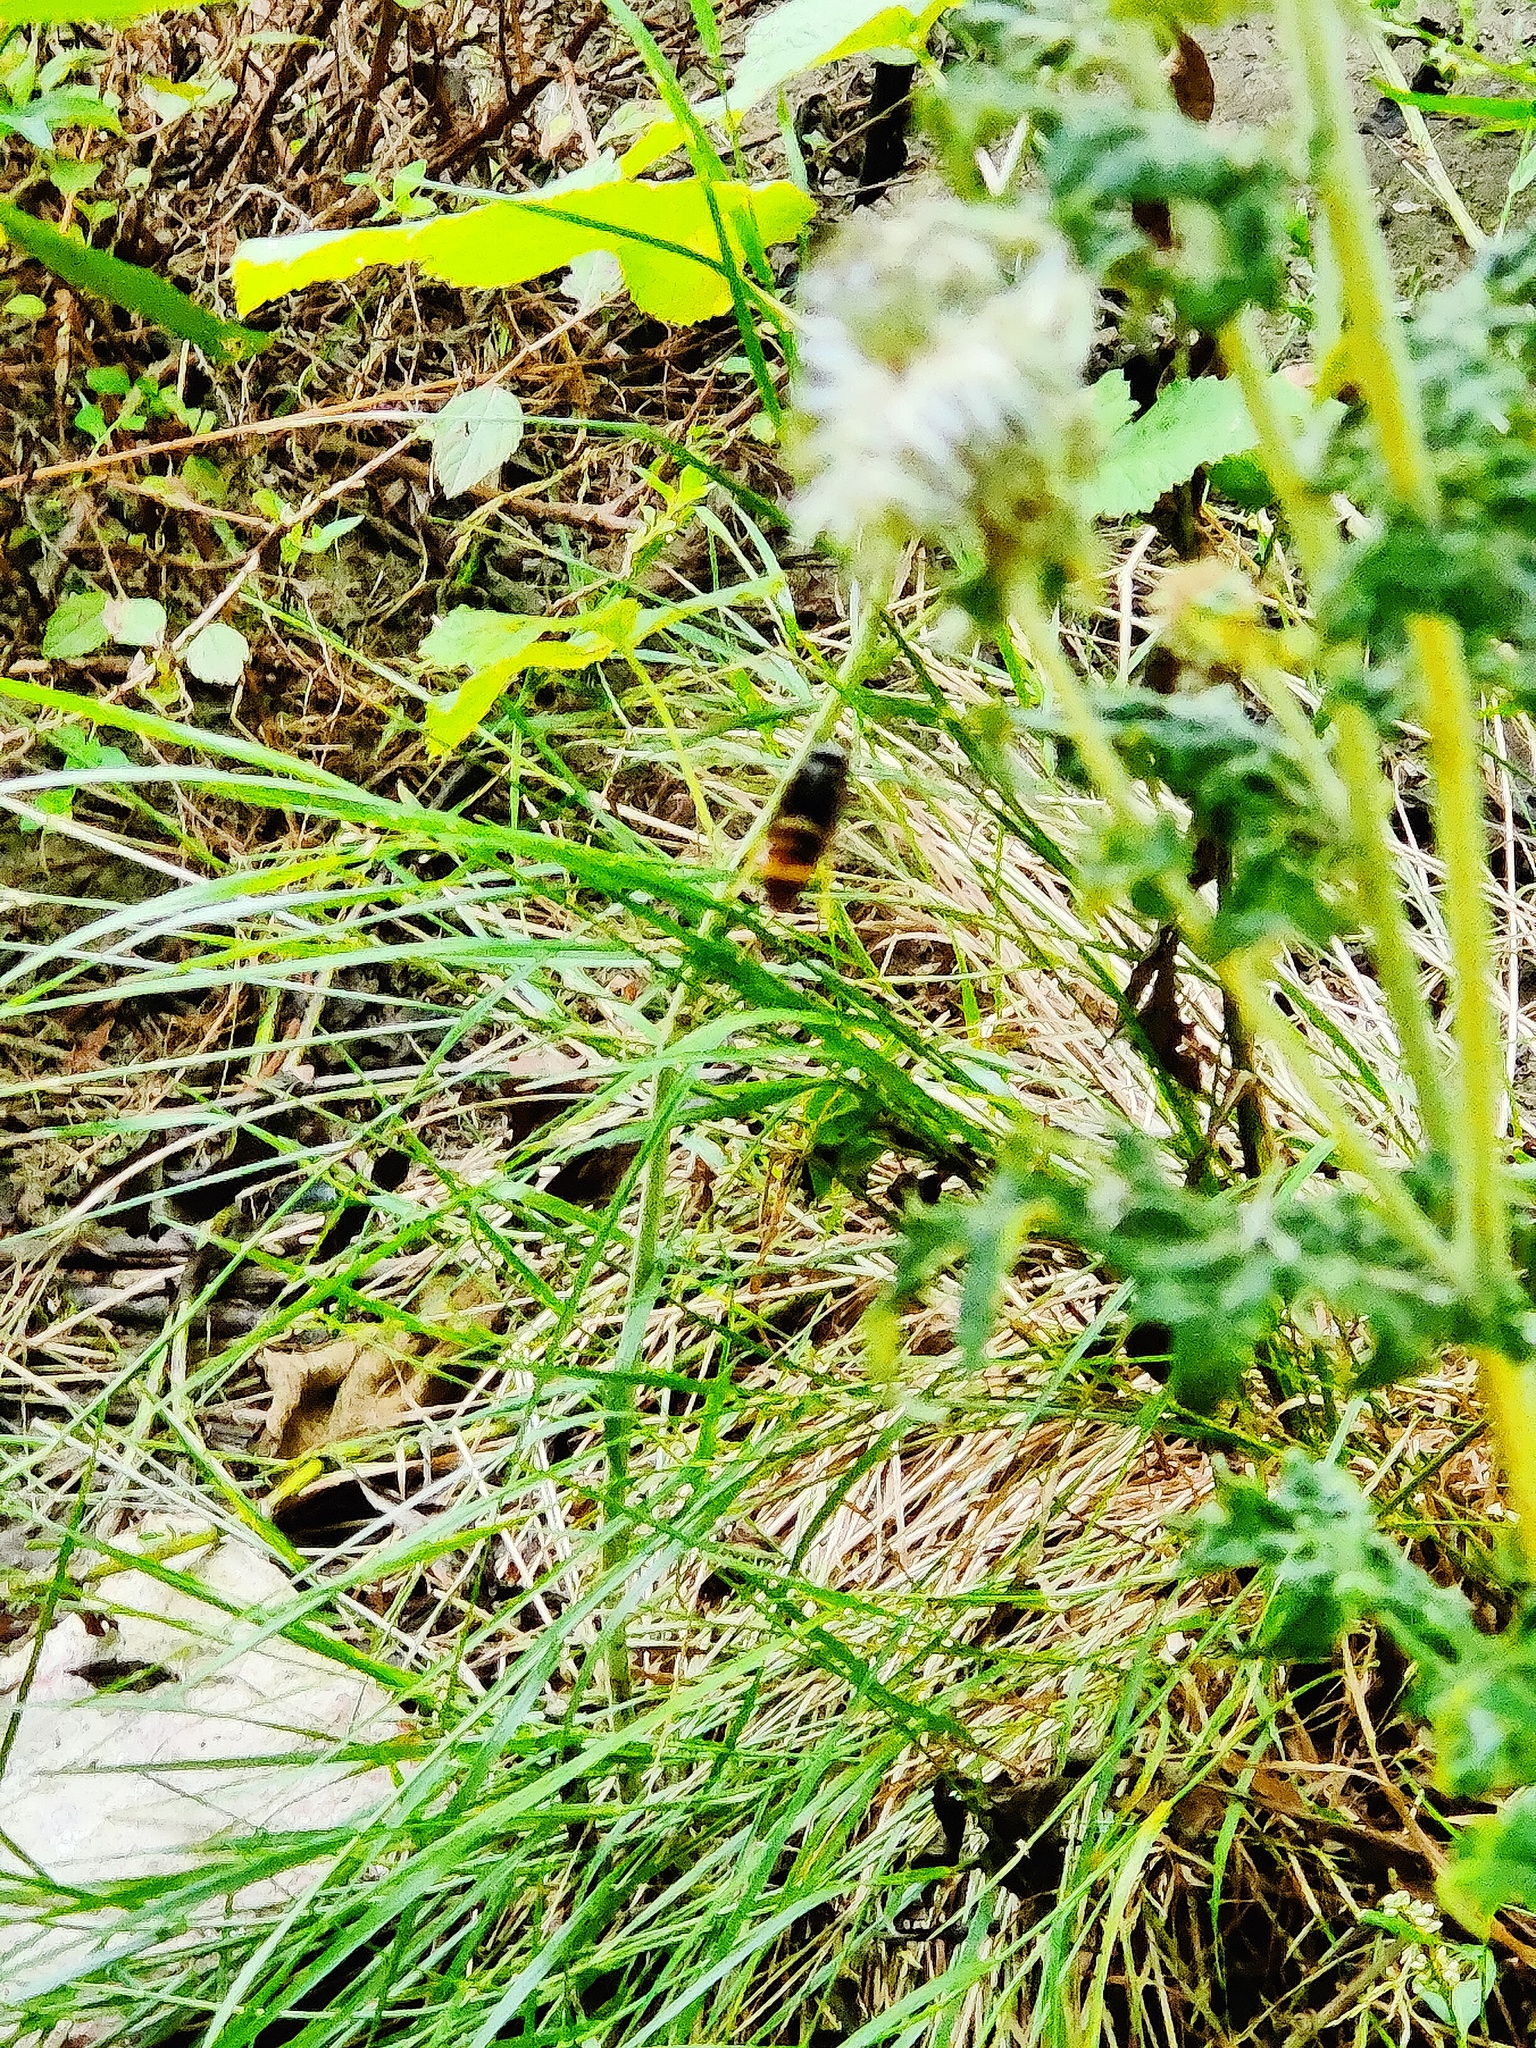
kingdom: Animalia
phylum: Arthropoda
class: Insecta
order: Hymenoptera
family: Vespidae
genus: Vespa
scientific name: Vespa velutina
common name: Asian hornet
